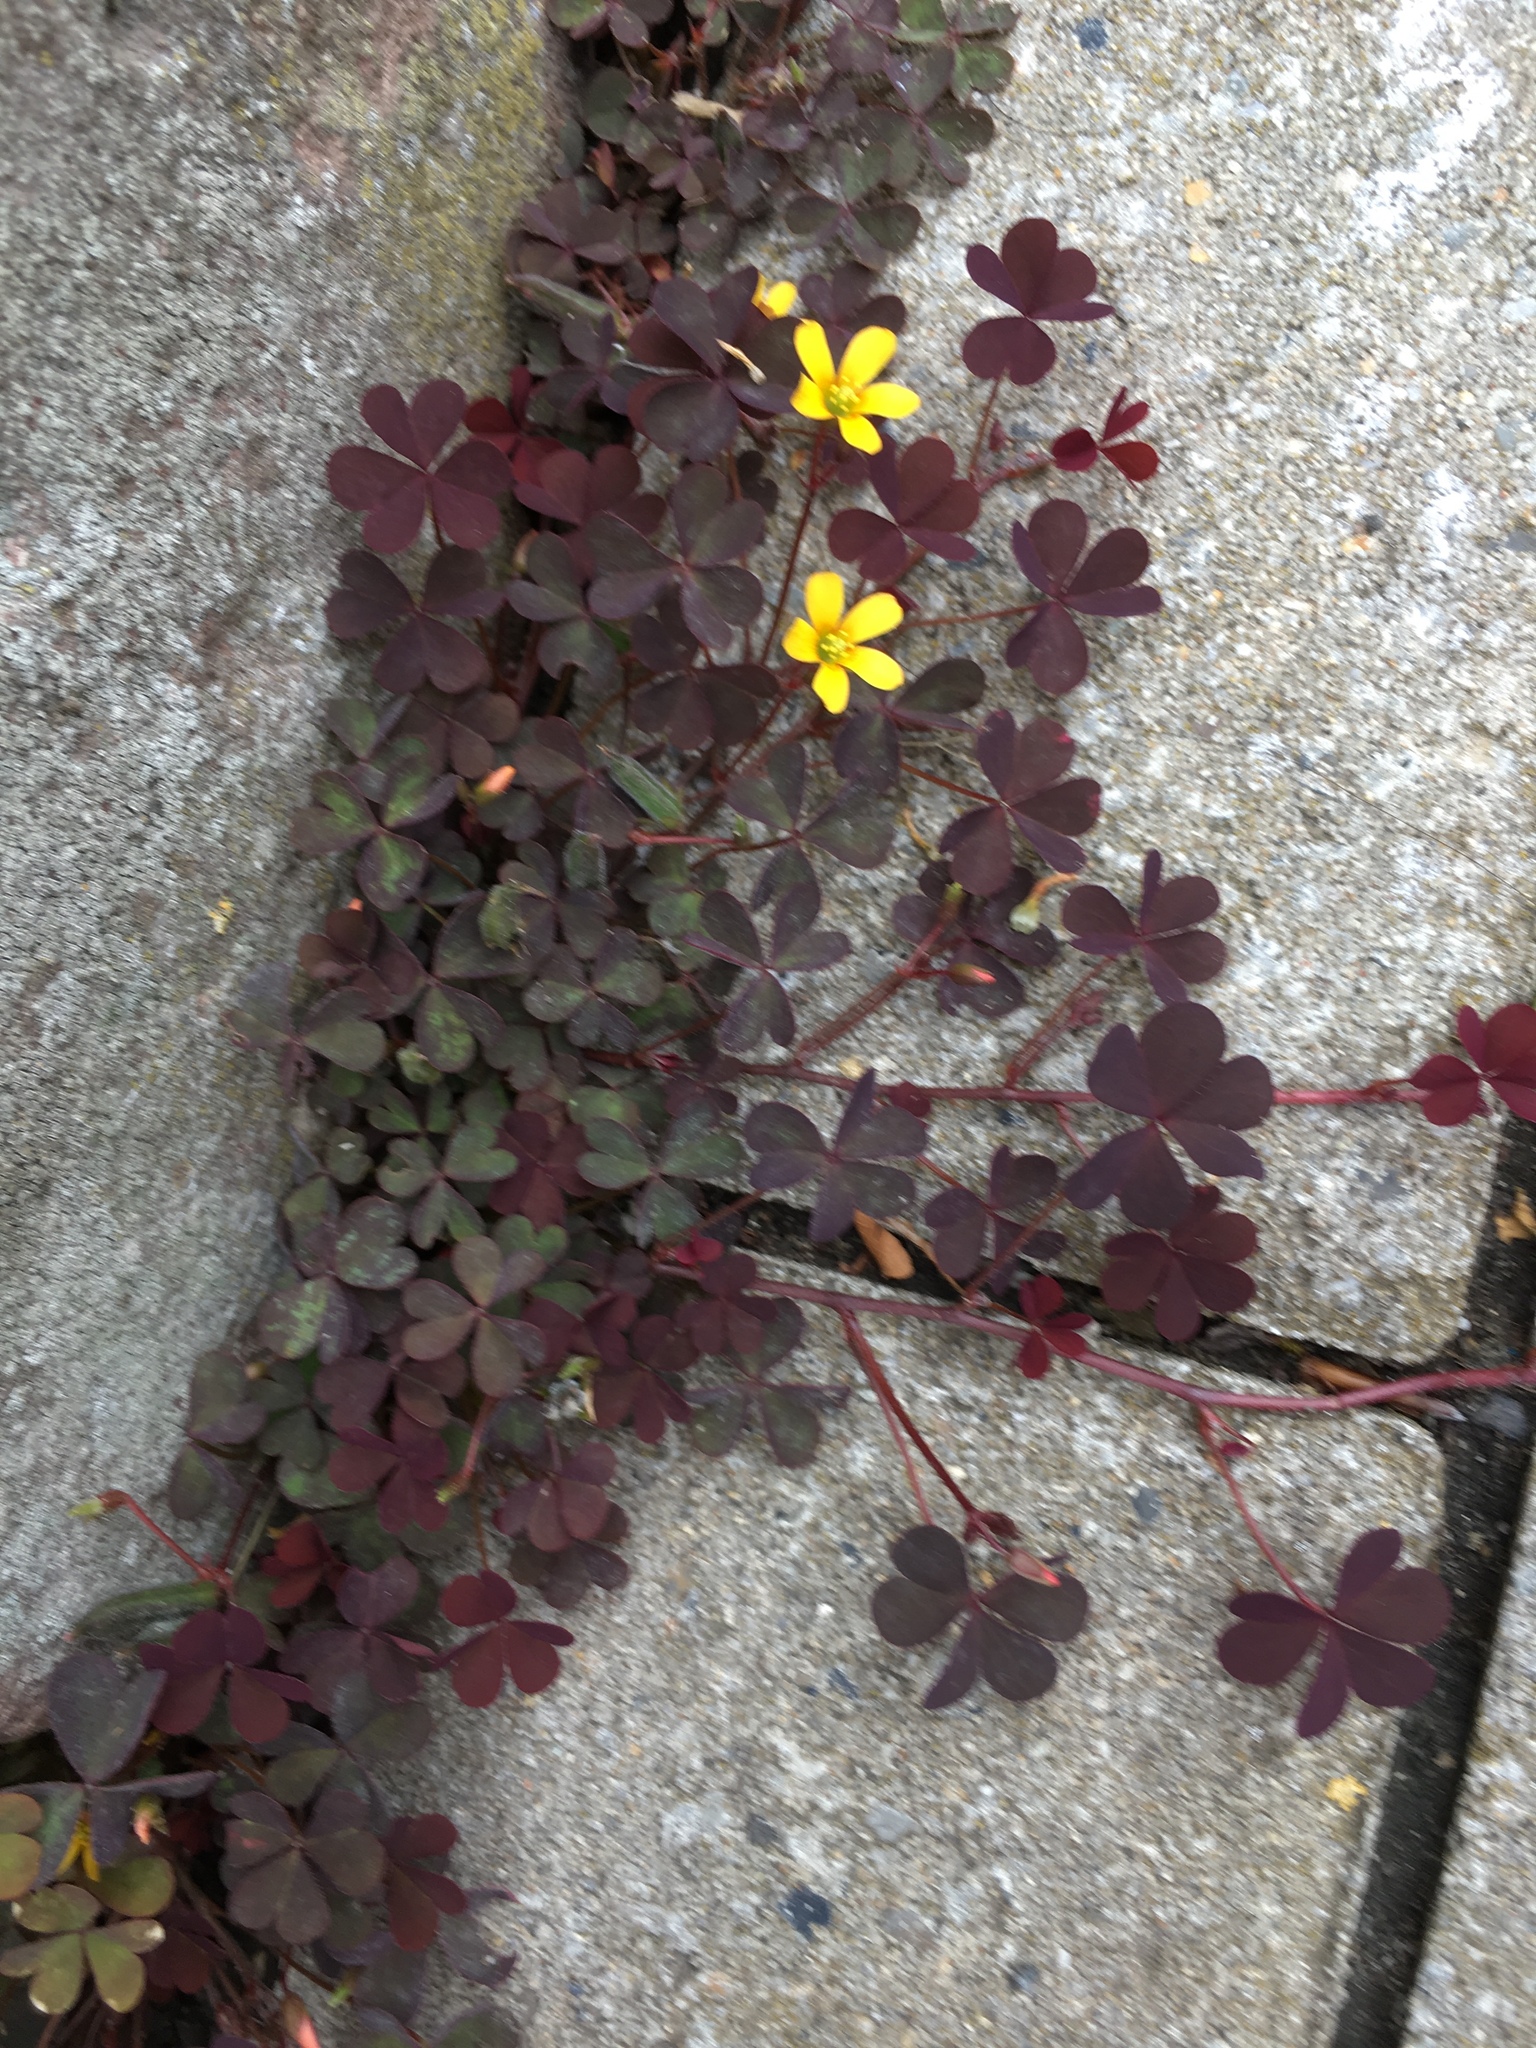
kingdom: Plantae
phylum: Tracheophyta
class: Magnoliopsida
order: Oxalidales
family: Oxalidaceae
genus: Oxalis
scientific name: Oxalis corniculata
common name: Procumbent yellow-sorrel
